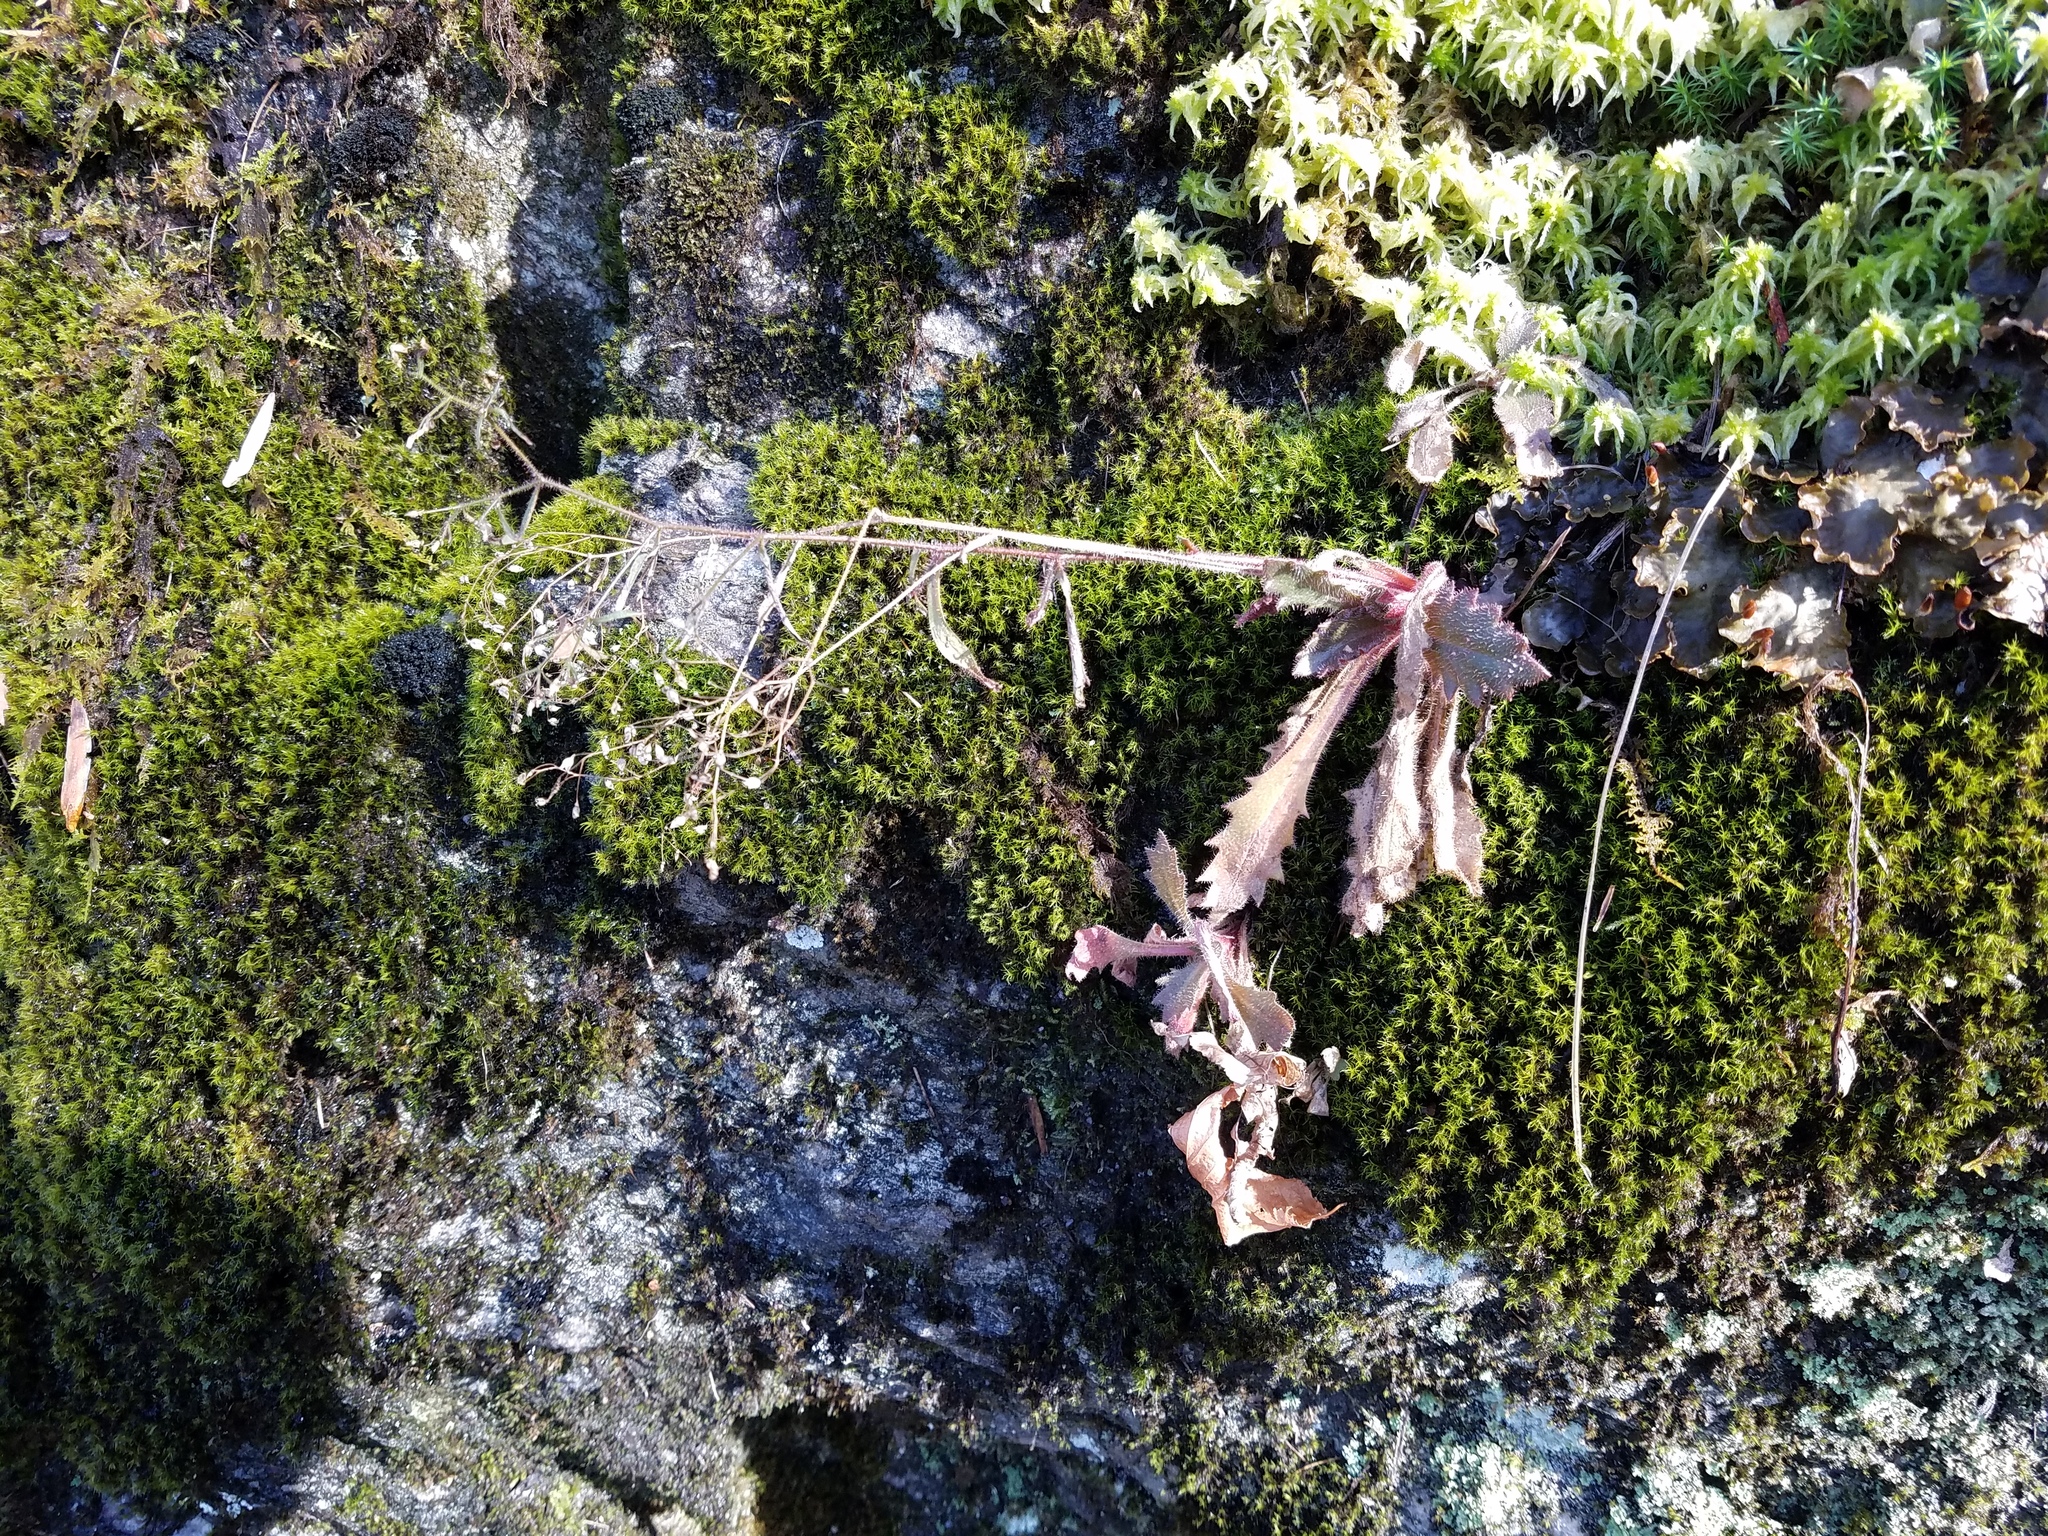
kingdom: Plantae
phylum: Tracheophyta
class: Magnoliopsida
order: Saxifragales
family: Saxifragaceae
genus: Micranthes
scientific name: Micranthes petiolaris
